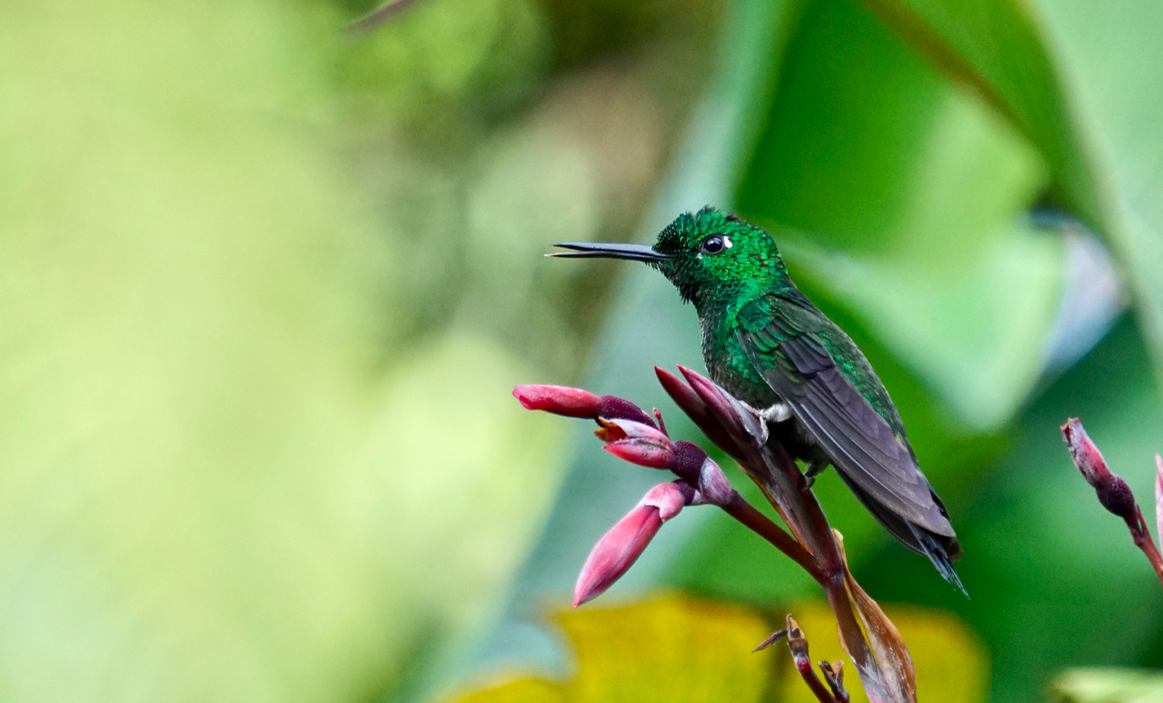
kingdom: Animalia
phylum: Chordata
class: Aves
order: Apodiformes
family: Trochilidae
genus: Heliodoxa
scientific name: Heliodoxa jacula
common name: Green-crowned brilliant
